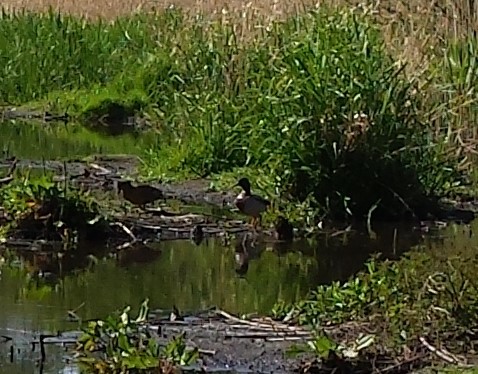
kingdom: Animalia
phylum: Chordata
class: Aves
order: Anseriformes
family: Anatidae
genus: Anas
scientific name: Anas platyrhynchos
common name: Mallard
